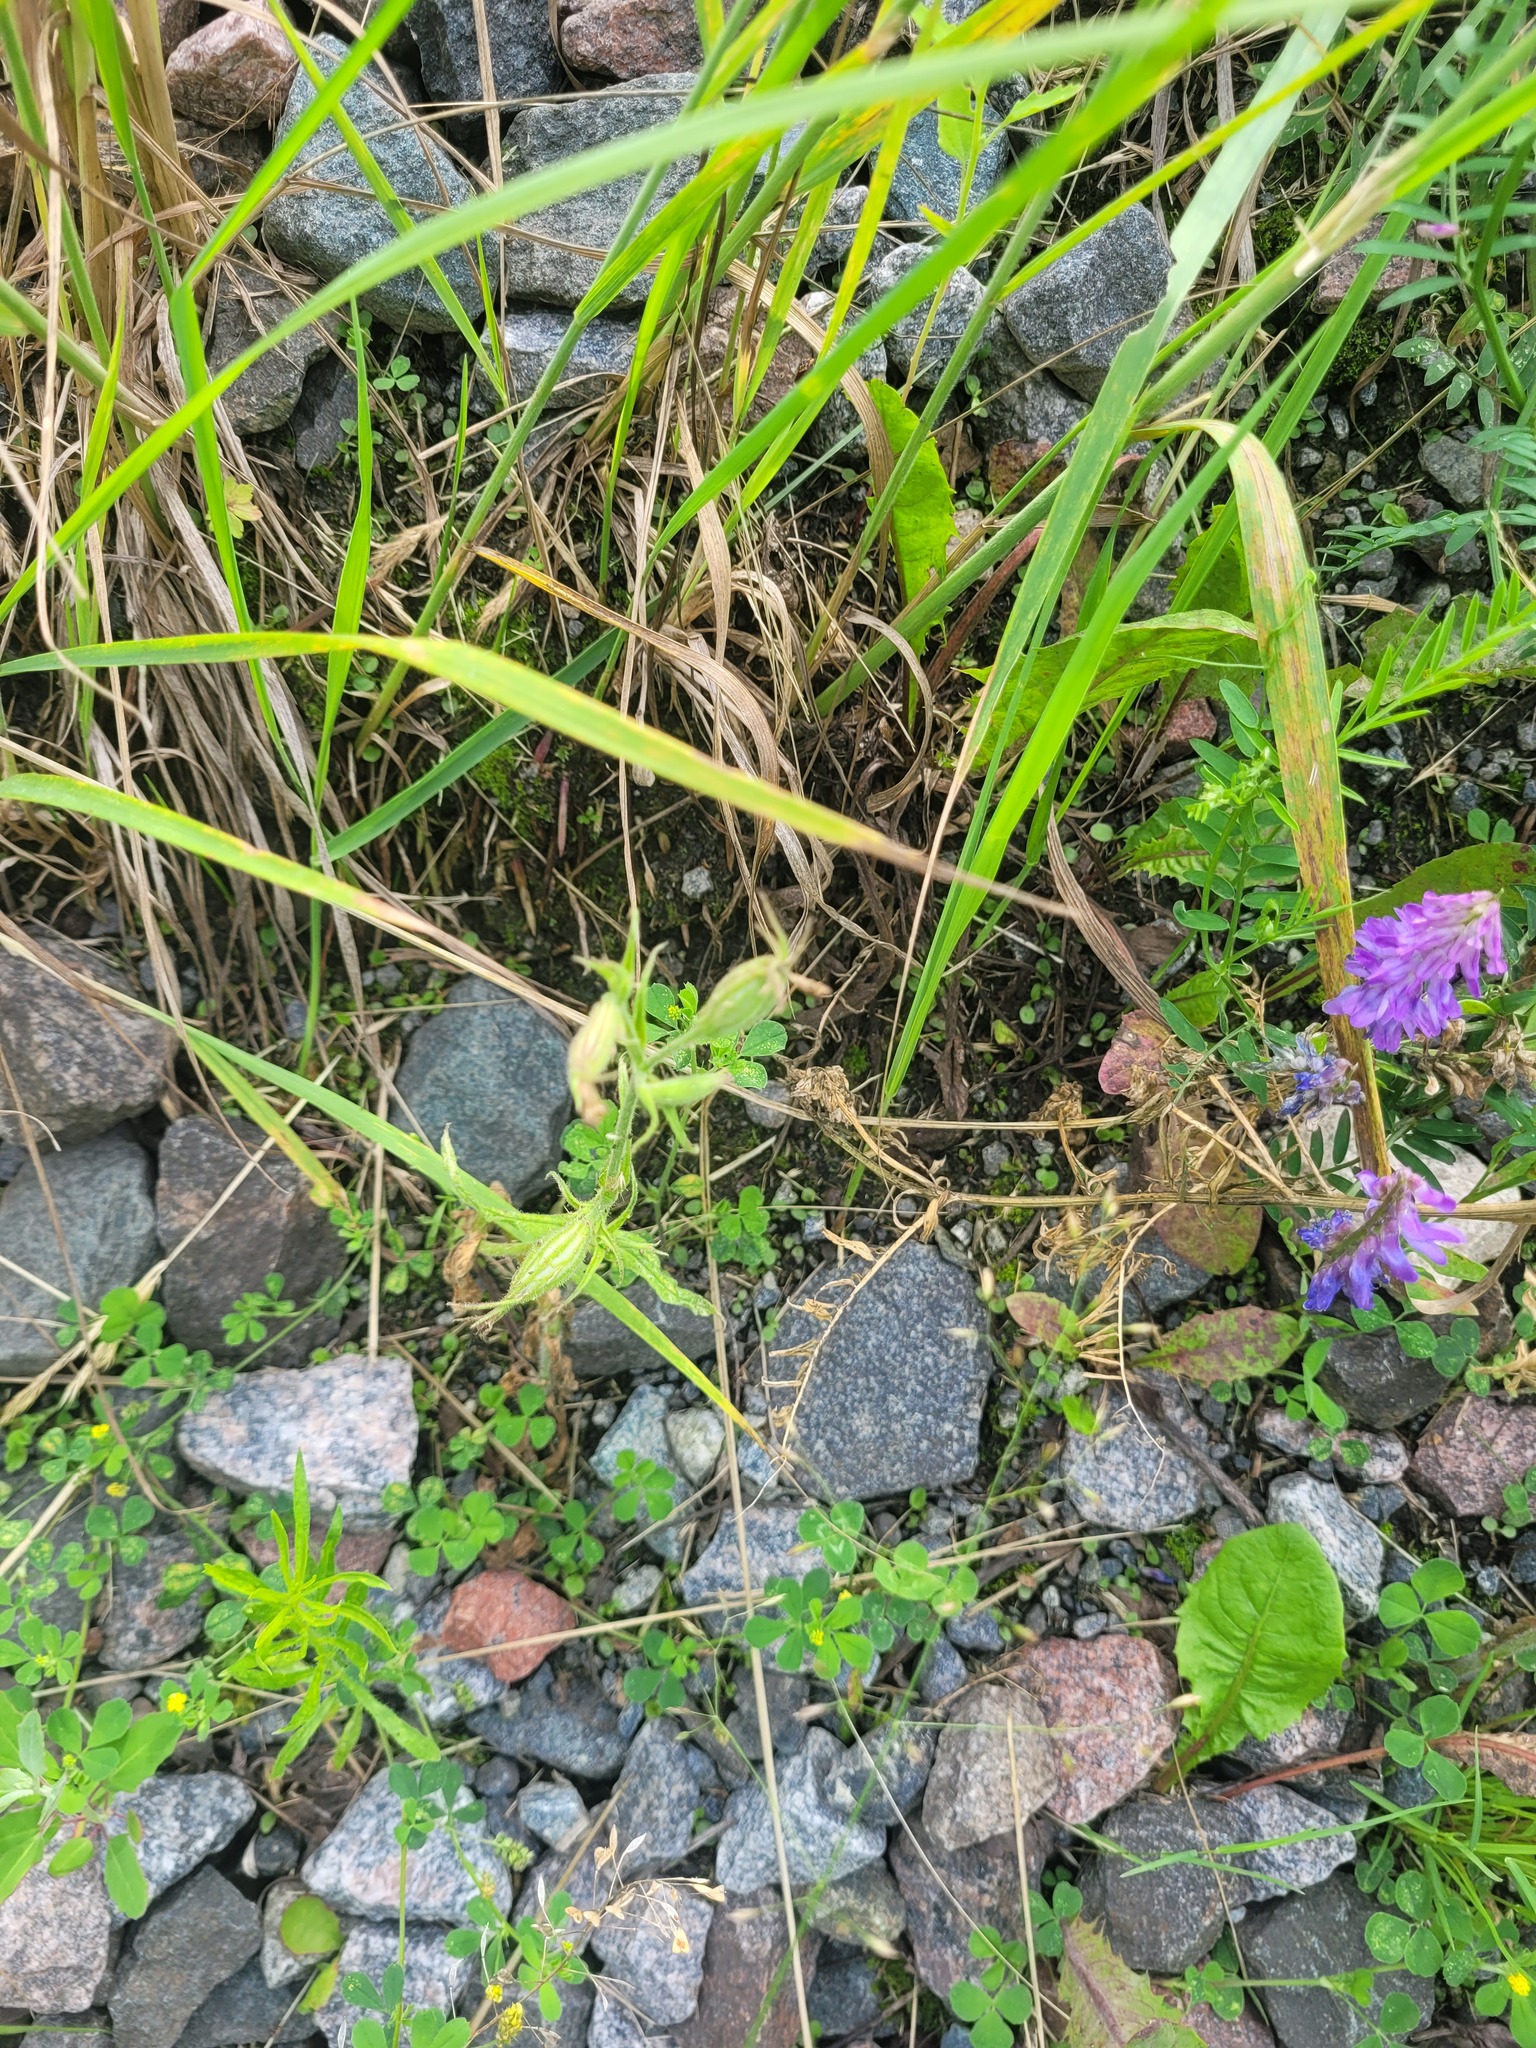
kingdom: Plantae
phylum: Tracheophyta
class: Magnoliopsida
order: Caryophyllales
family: Caryophyllaceae
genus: Silene
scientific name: Silene noctiflora
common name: Night-flowering catchfly
